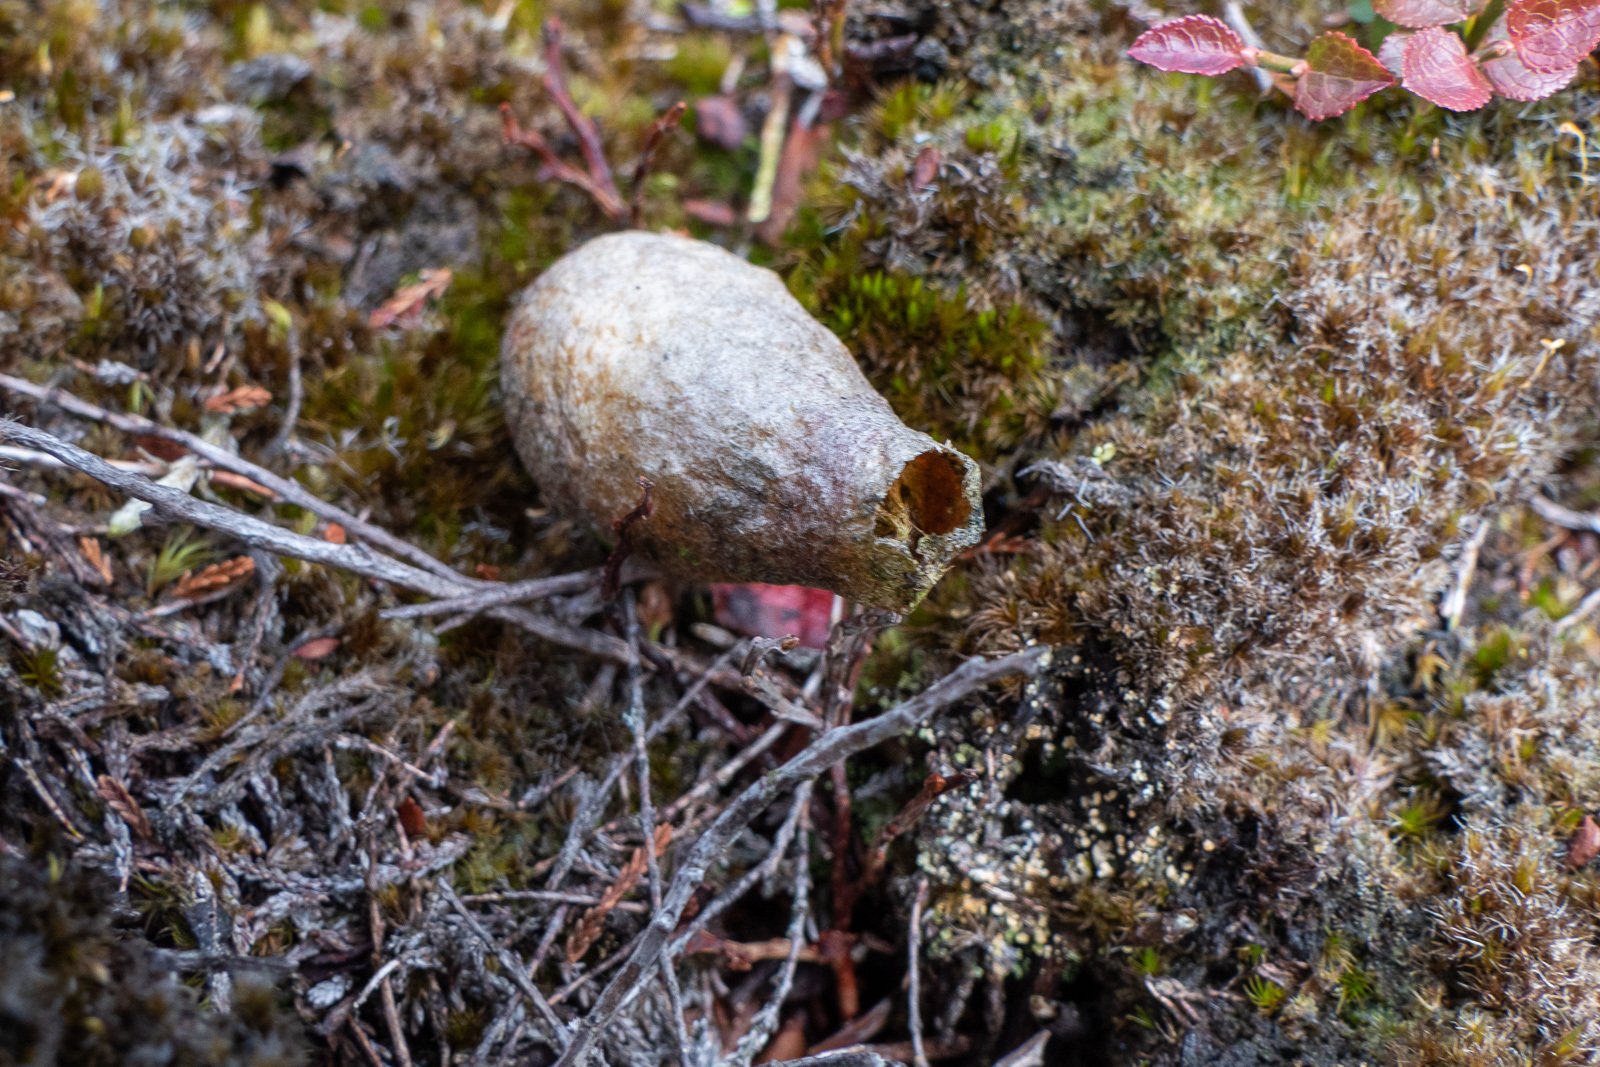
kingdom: Animalia
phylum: Arthropoda
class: Insecta
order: Lepidoptera
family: Saturniidae
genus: Saturnia
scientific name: Saturnia pavonia
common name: Emperor moth
